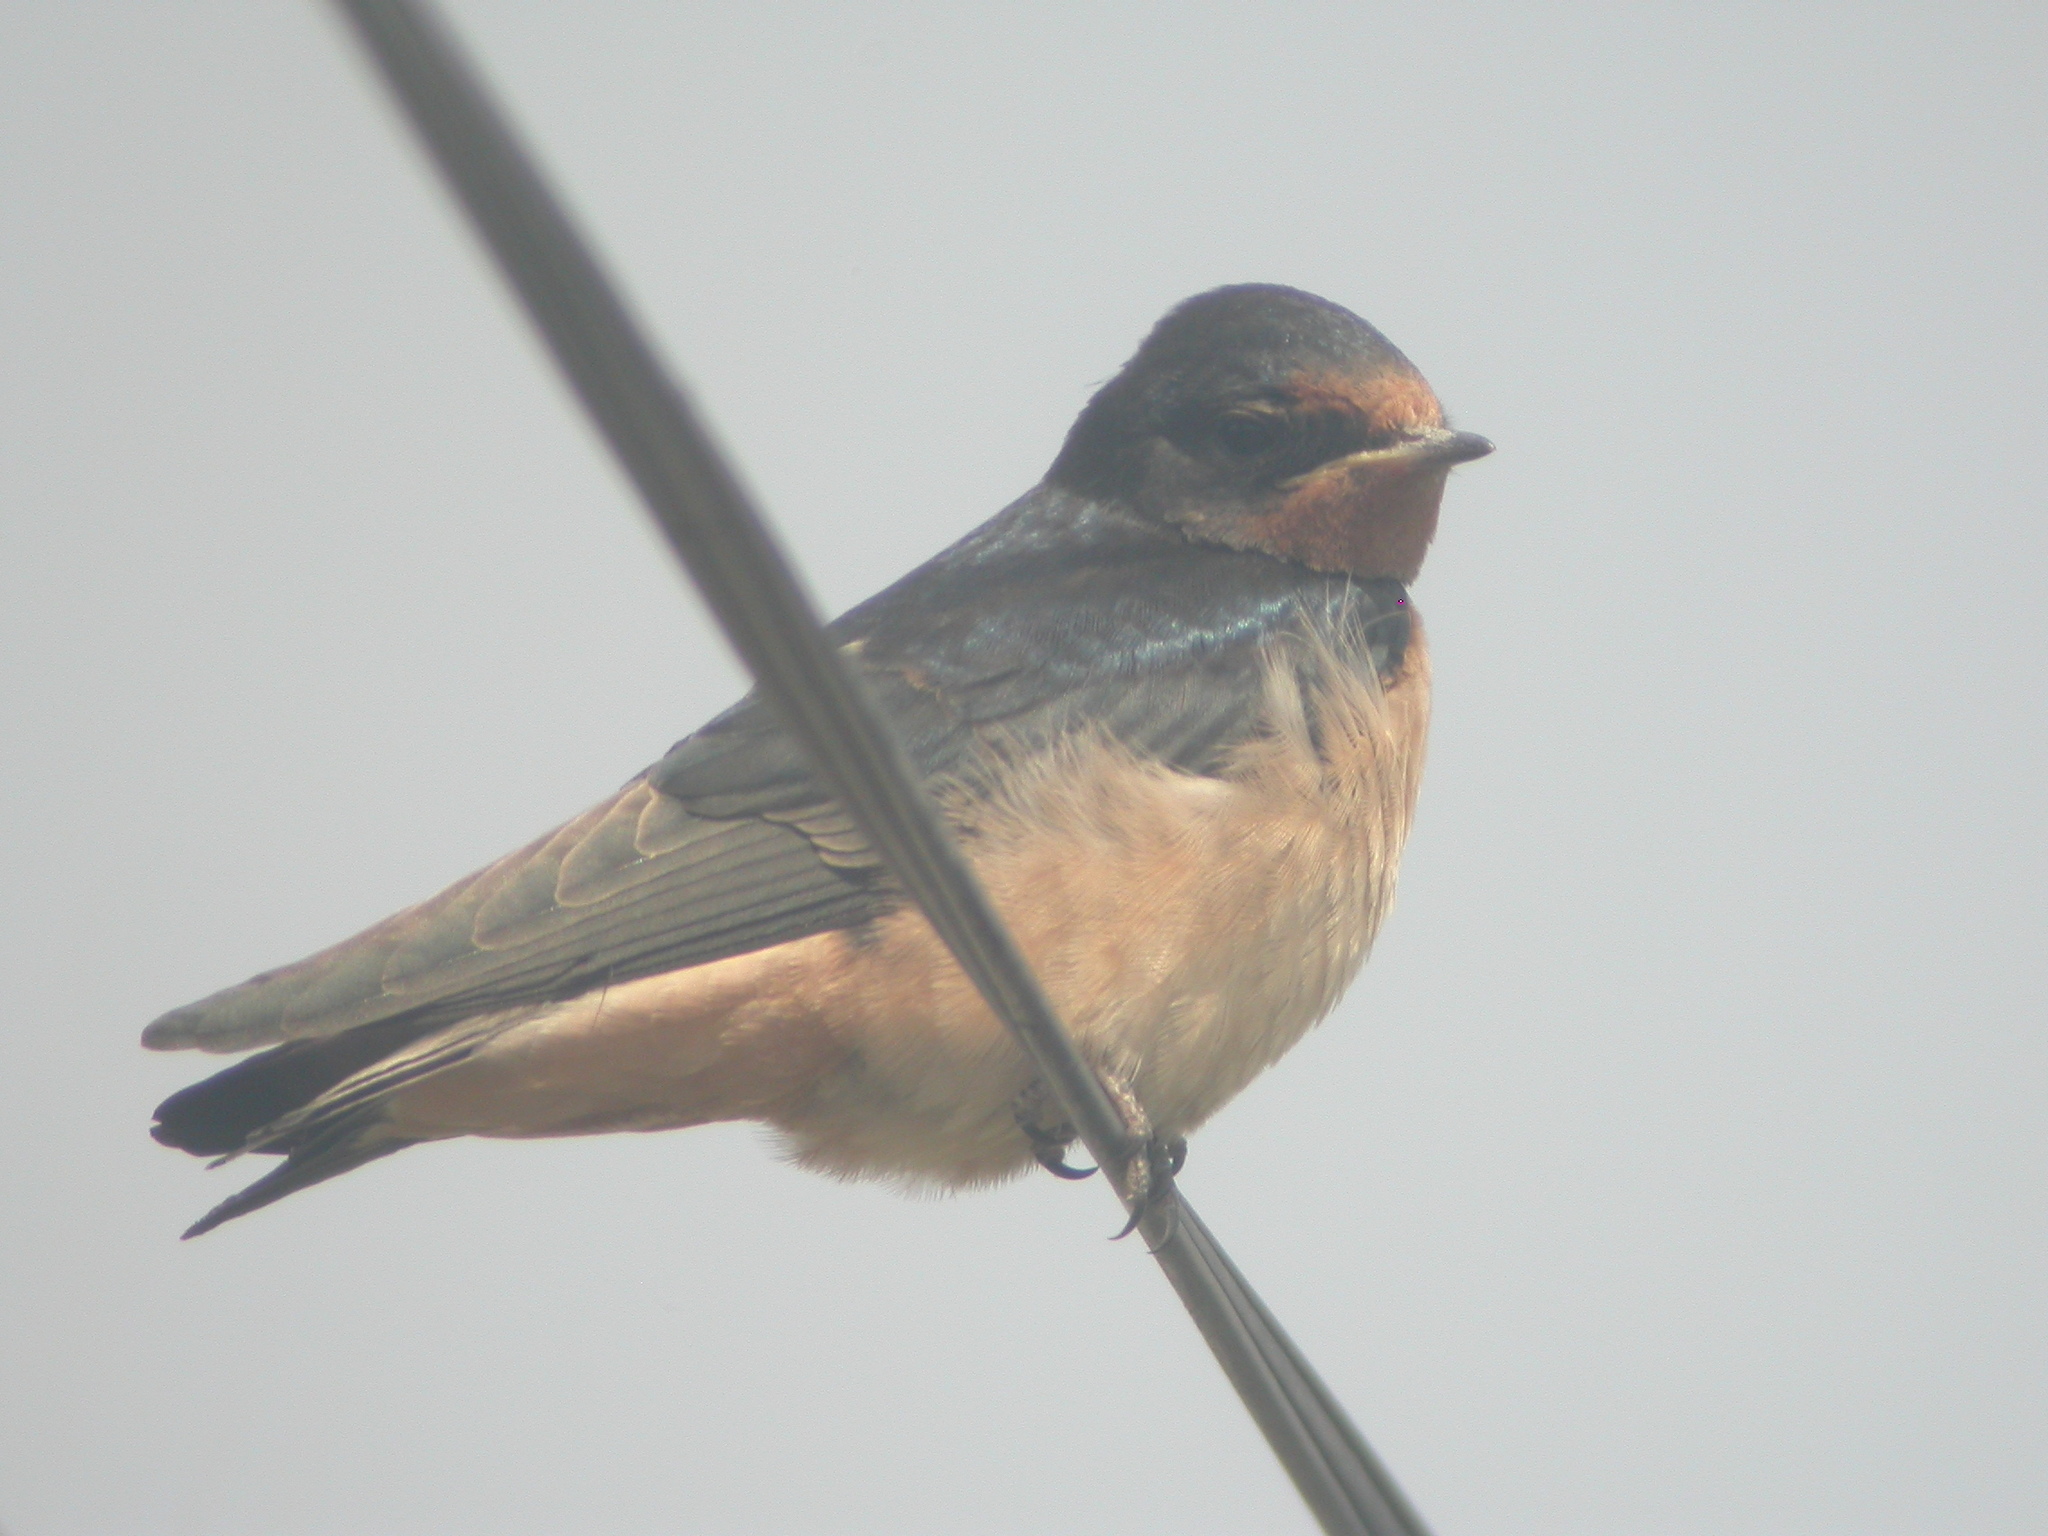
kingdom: Animalia
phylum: Chordata
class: Aves
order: Passeriformes
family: Hirundinidae
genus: Hirundo
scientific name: Hirundo rustica
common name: Barn swallow
